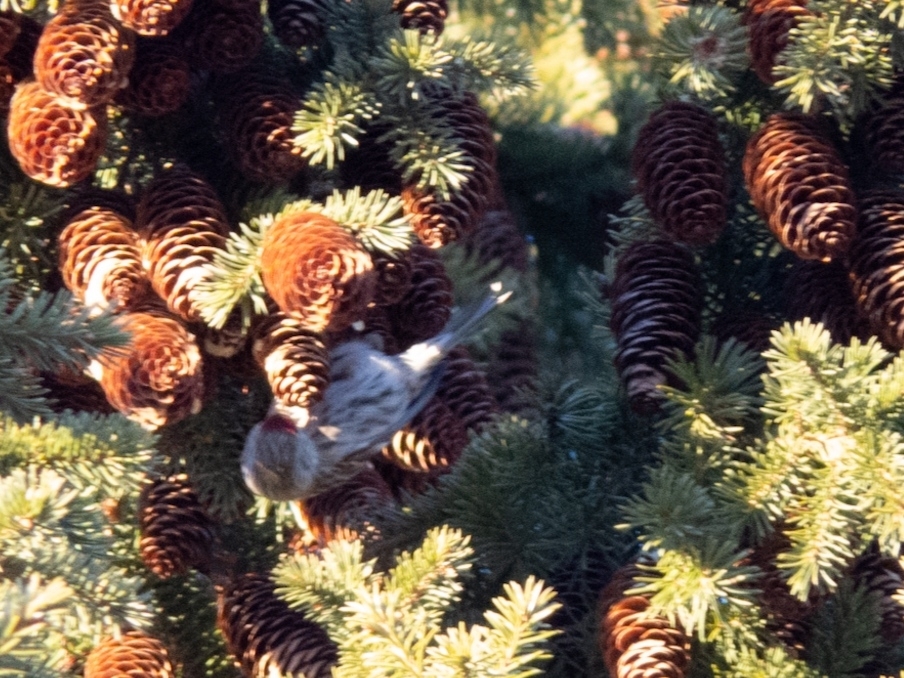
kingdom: Animalia
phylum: Chordata
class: Aves
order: Passeriformes
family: Fringillidae
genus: Acanthis
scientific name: Acanthis flammea
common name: Common redpoll
